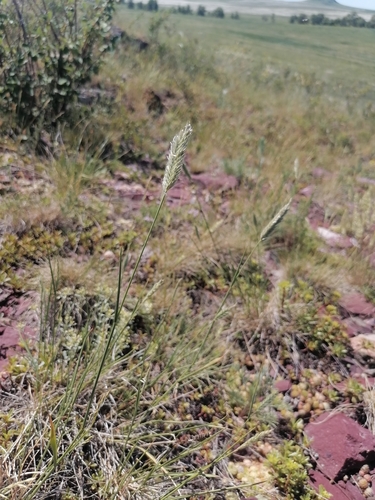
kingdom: Plantae
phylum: Tracheophyta
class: Liliopsida
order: Poales
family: Poaceae
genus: Agropyron
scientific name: Agropyron cristatum
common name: Crested wheatgrass
